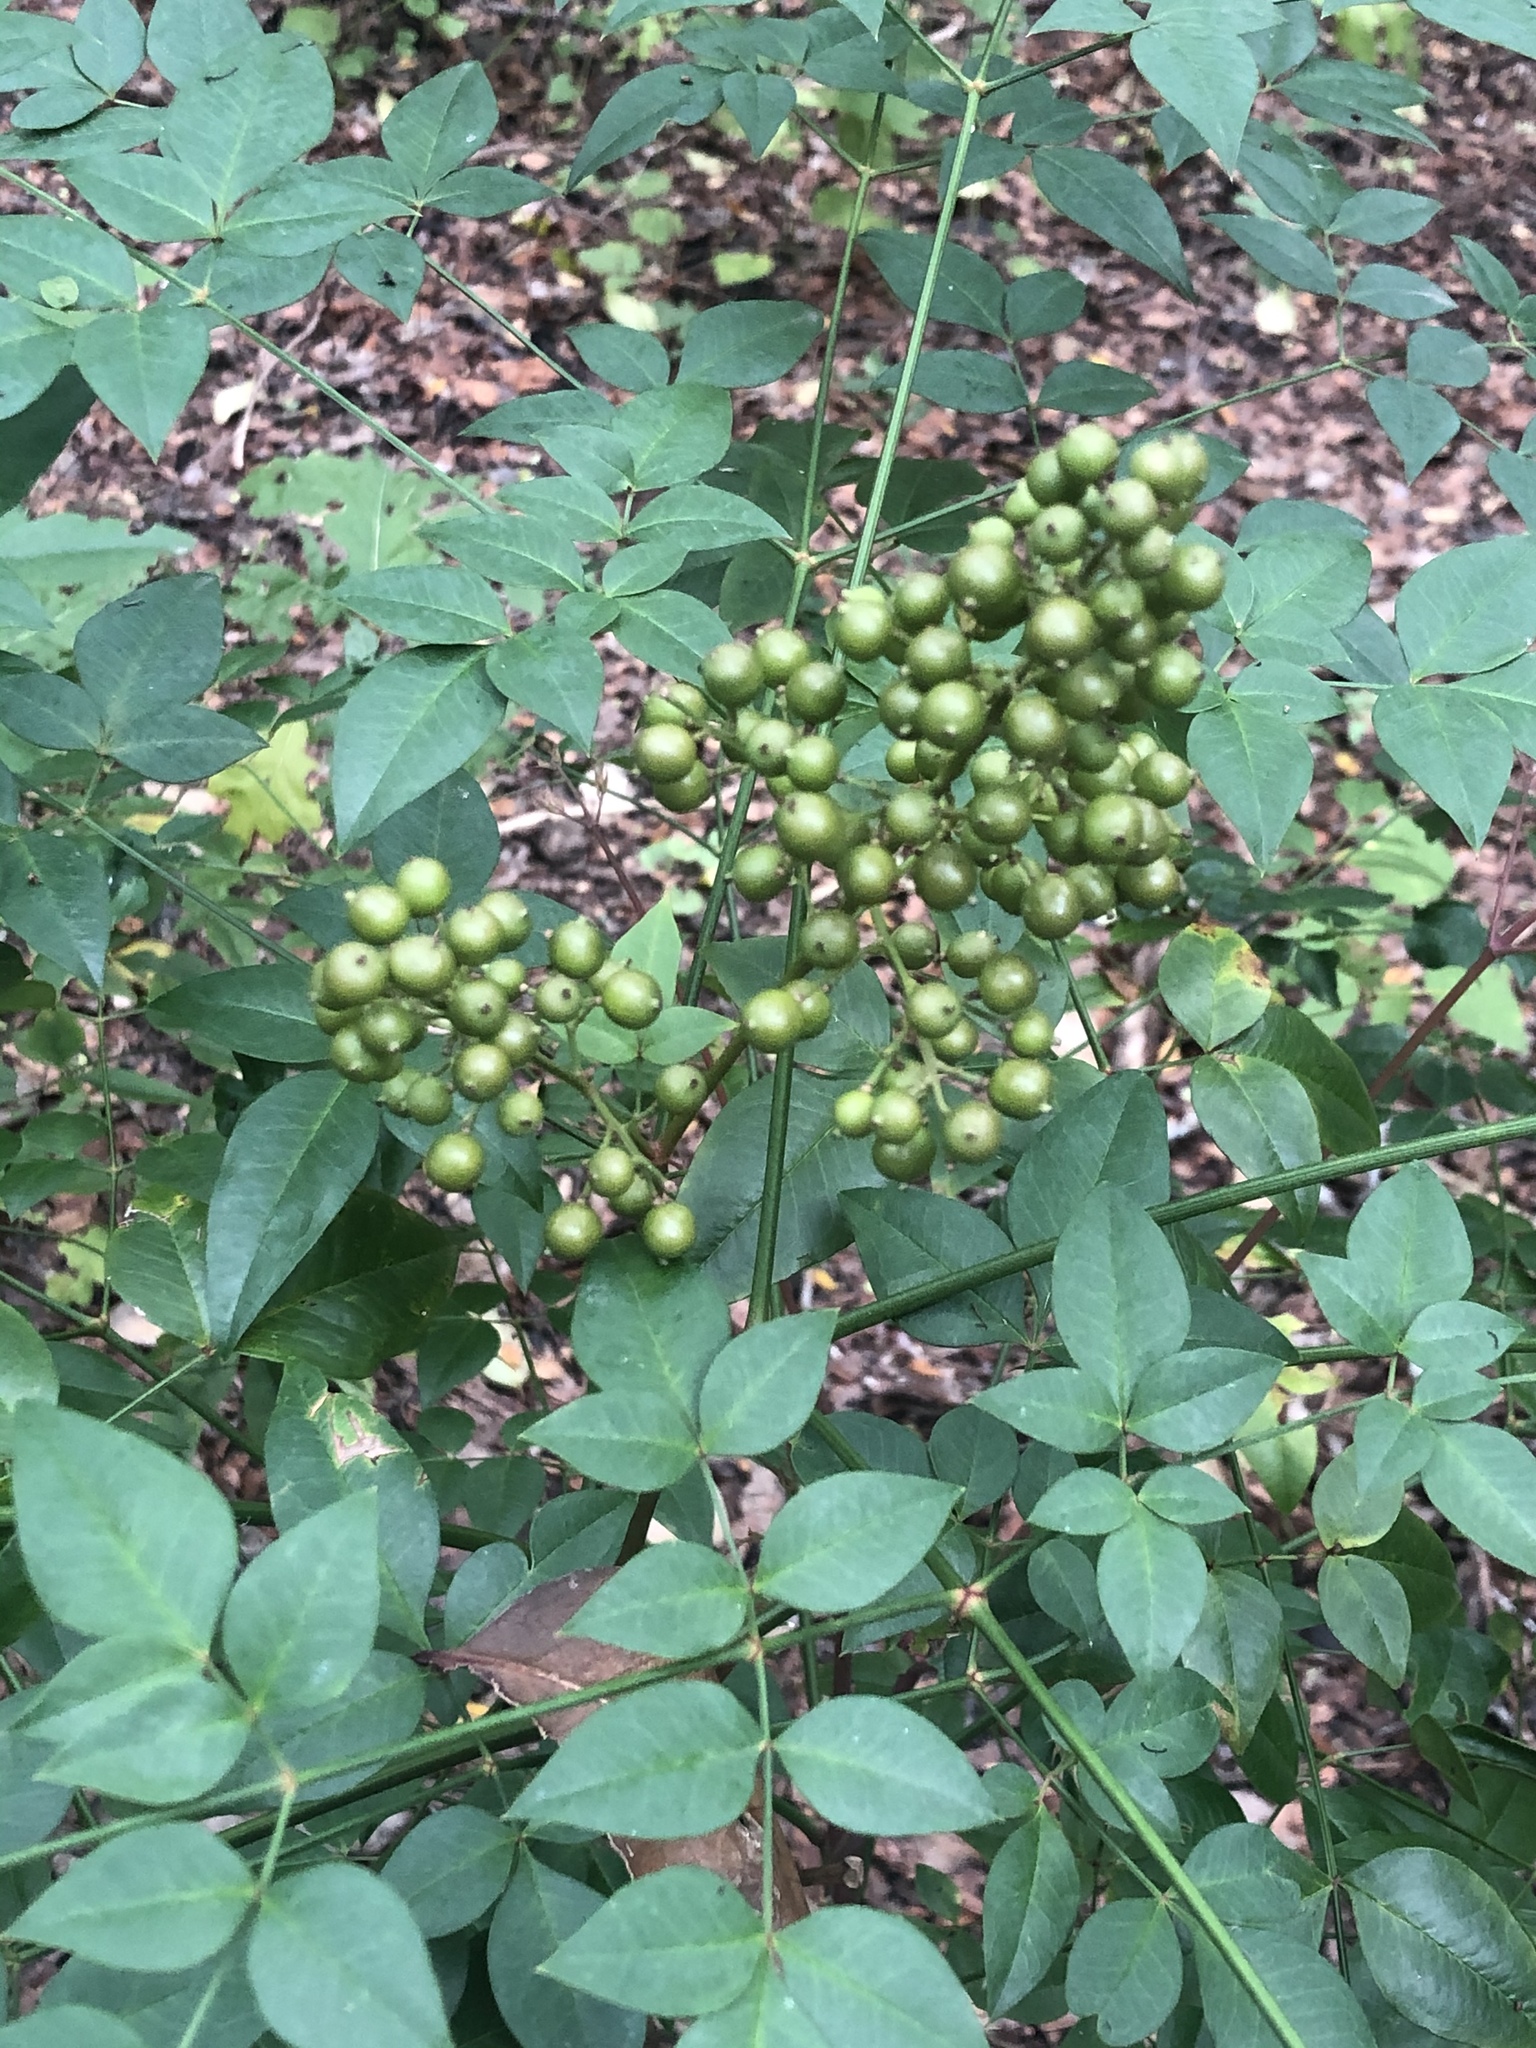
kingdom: Plantae
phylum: Tracheophyta
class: Magnoliopsida
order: Ranunculales
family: Berberidaceae
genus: Nandina
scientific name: Nandina domestica
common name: Sacred bamboo
